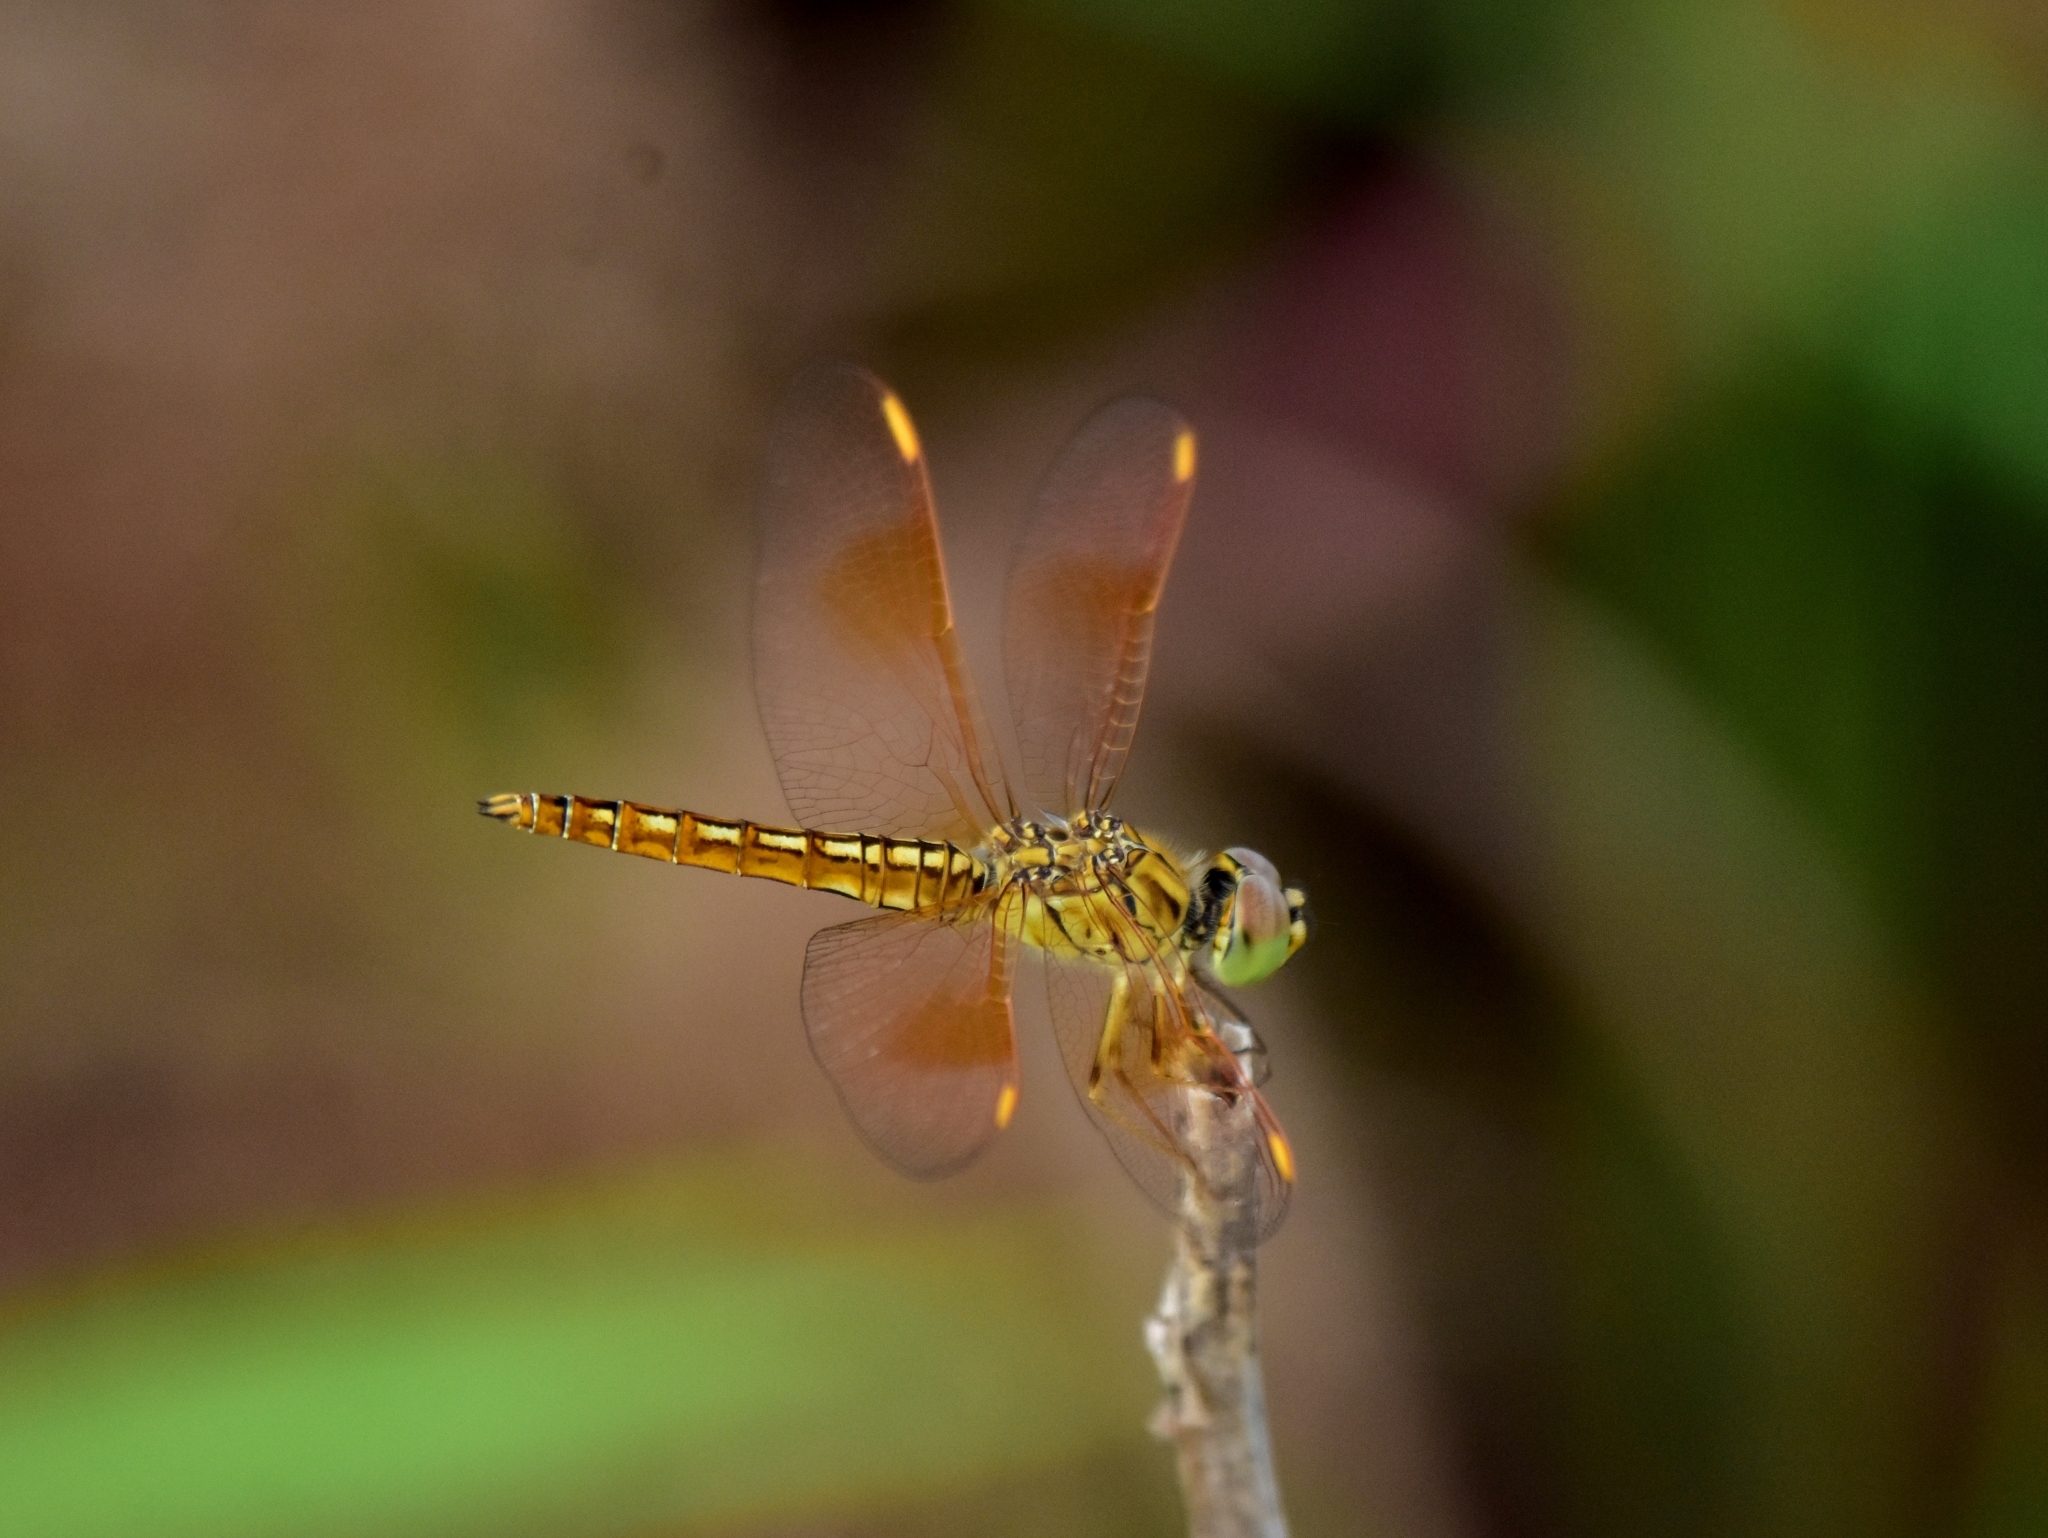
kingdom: Animalia
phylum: Arthropoda
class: Insecta
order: Odonata
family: Libellulidae
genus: Brachythemis
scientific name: Brachythemis contaminata
